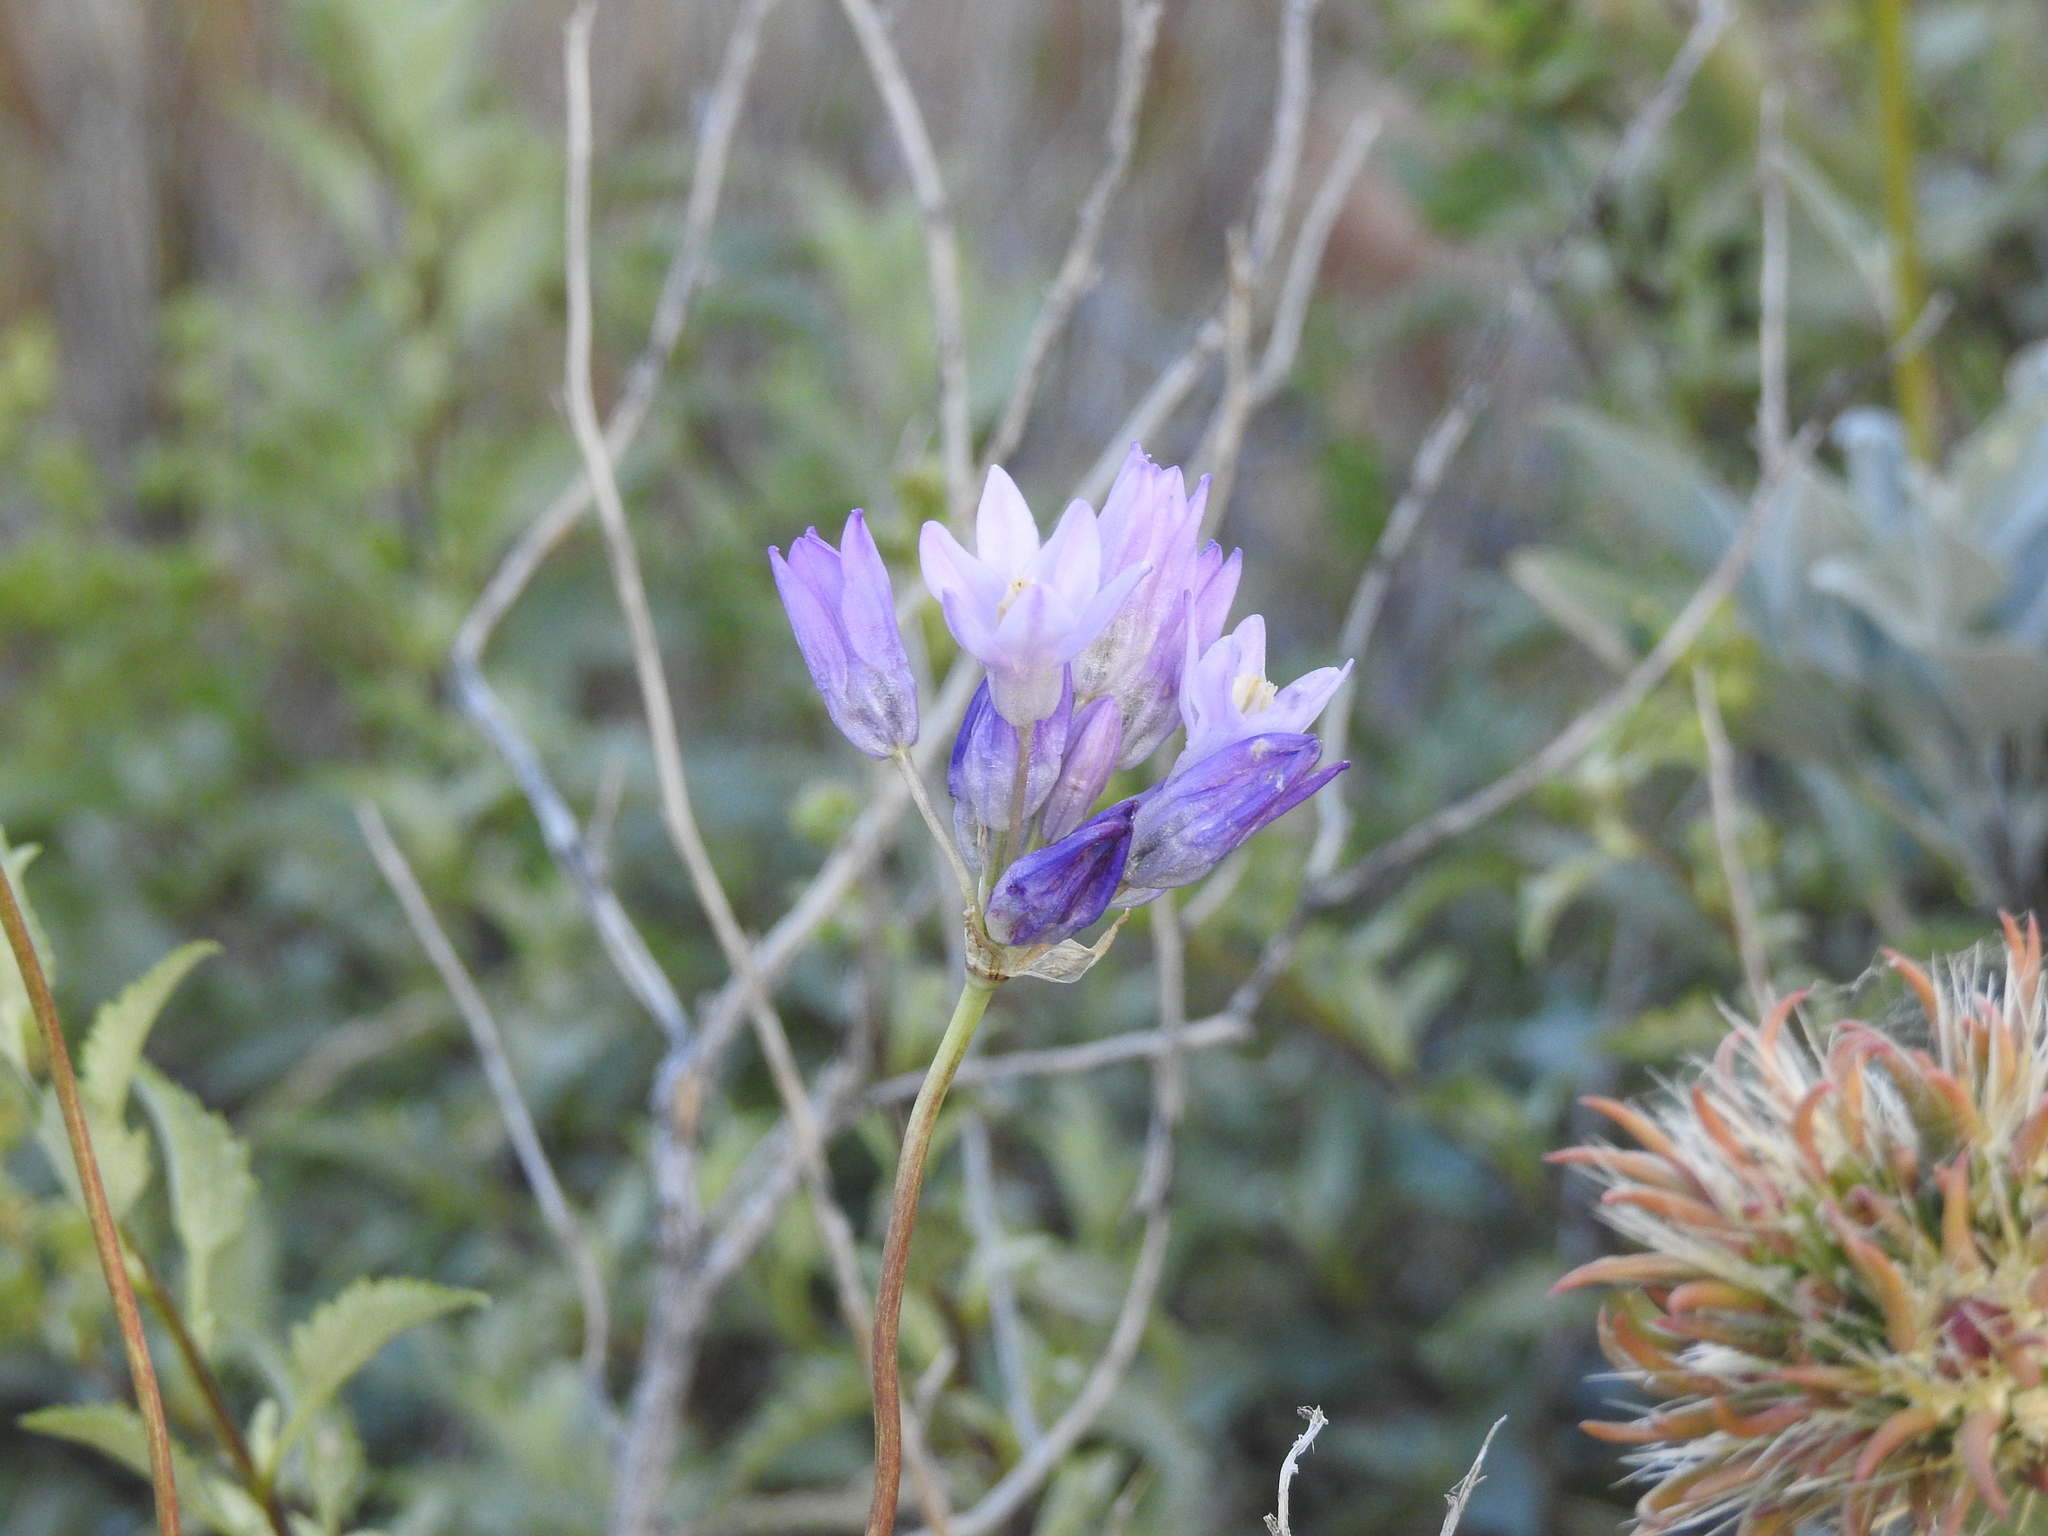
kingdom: Plantae
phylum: Tracheophyta
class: Liliopsida
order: Asparagales
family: Asparagaceae
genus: Dipterostemon
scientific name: Dipterostemon capitatus
